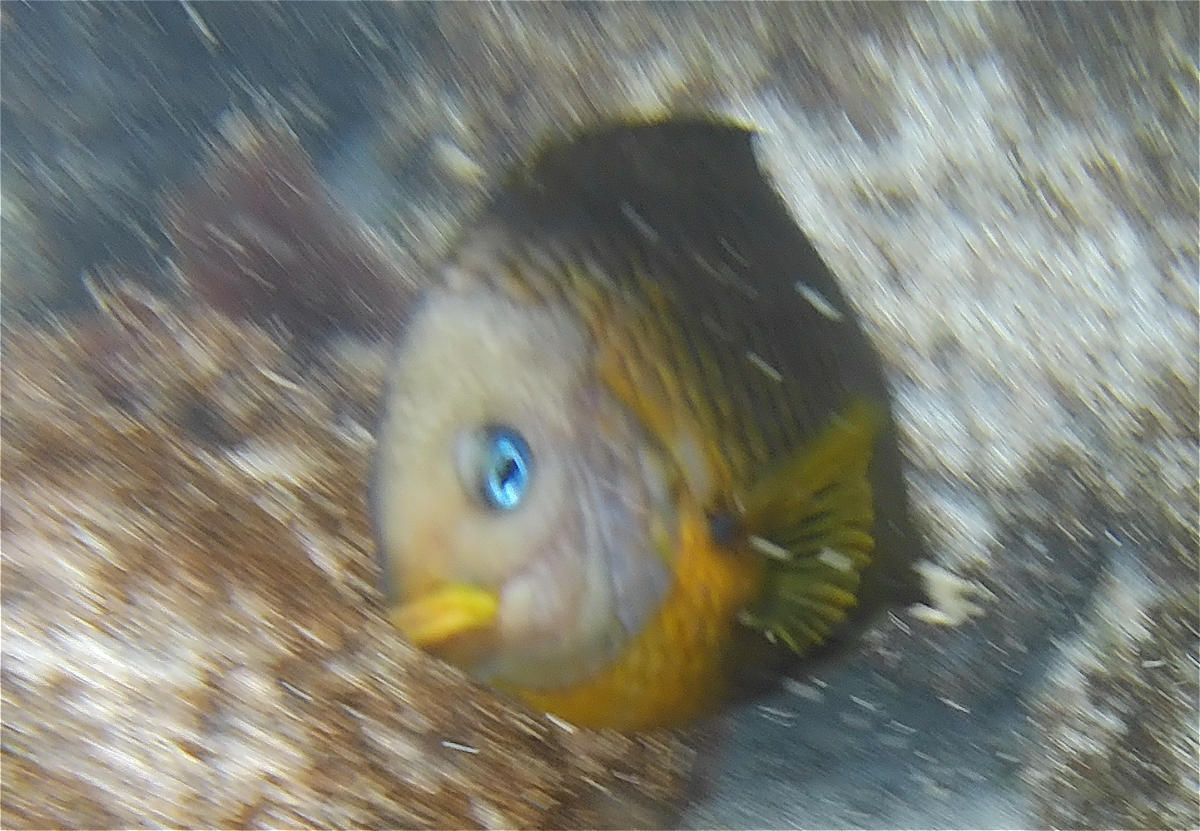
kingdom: Animalia
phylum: Chordata
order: Perciformes
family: Pomacentridae
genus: Stegastes
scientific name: Stegastes arcifrons
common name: Galapagos gregory
